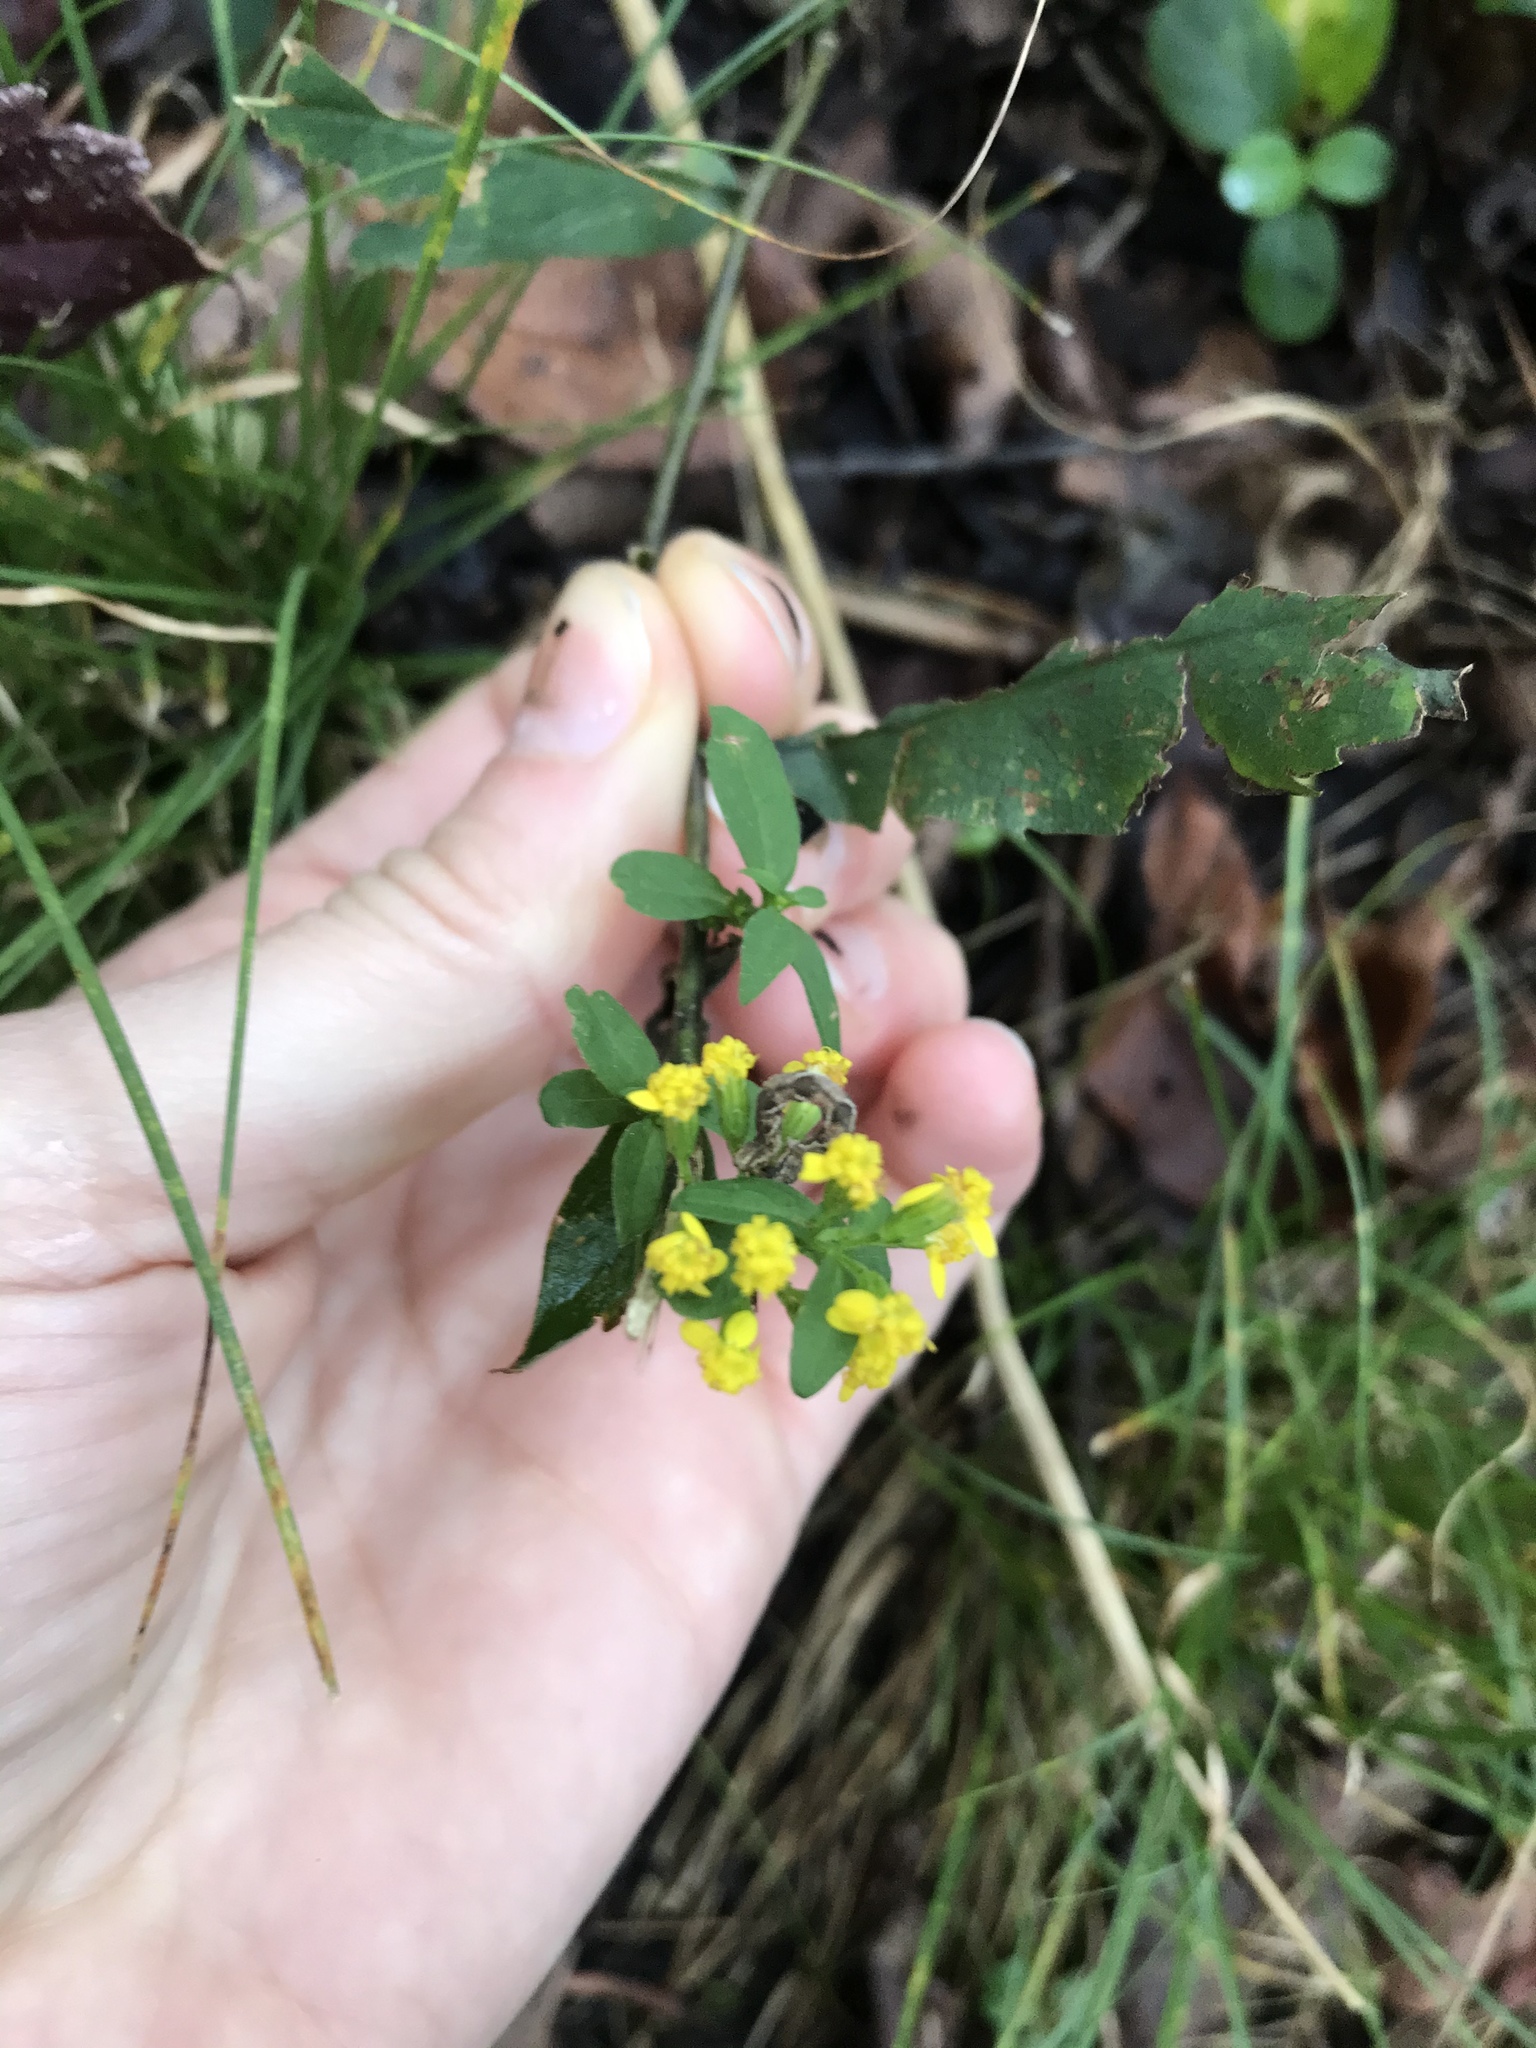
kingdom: Plantae
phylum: Tracheophyta
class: Magnoliopsida
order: Asterales
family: Asteraceae
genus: Solidago
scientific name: Solidago caesia
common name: Woodland goldenrod
